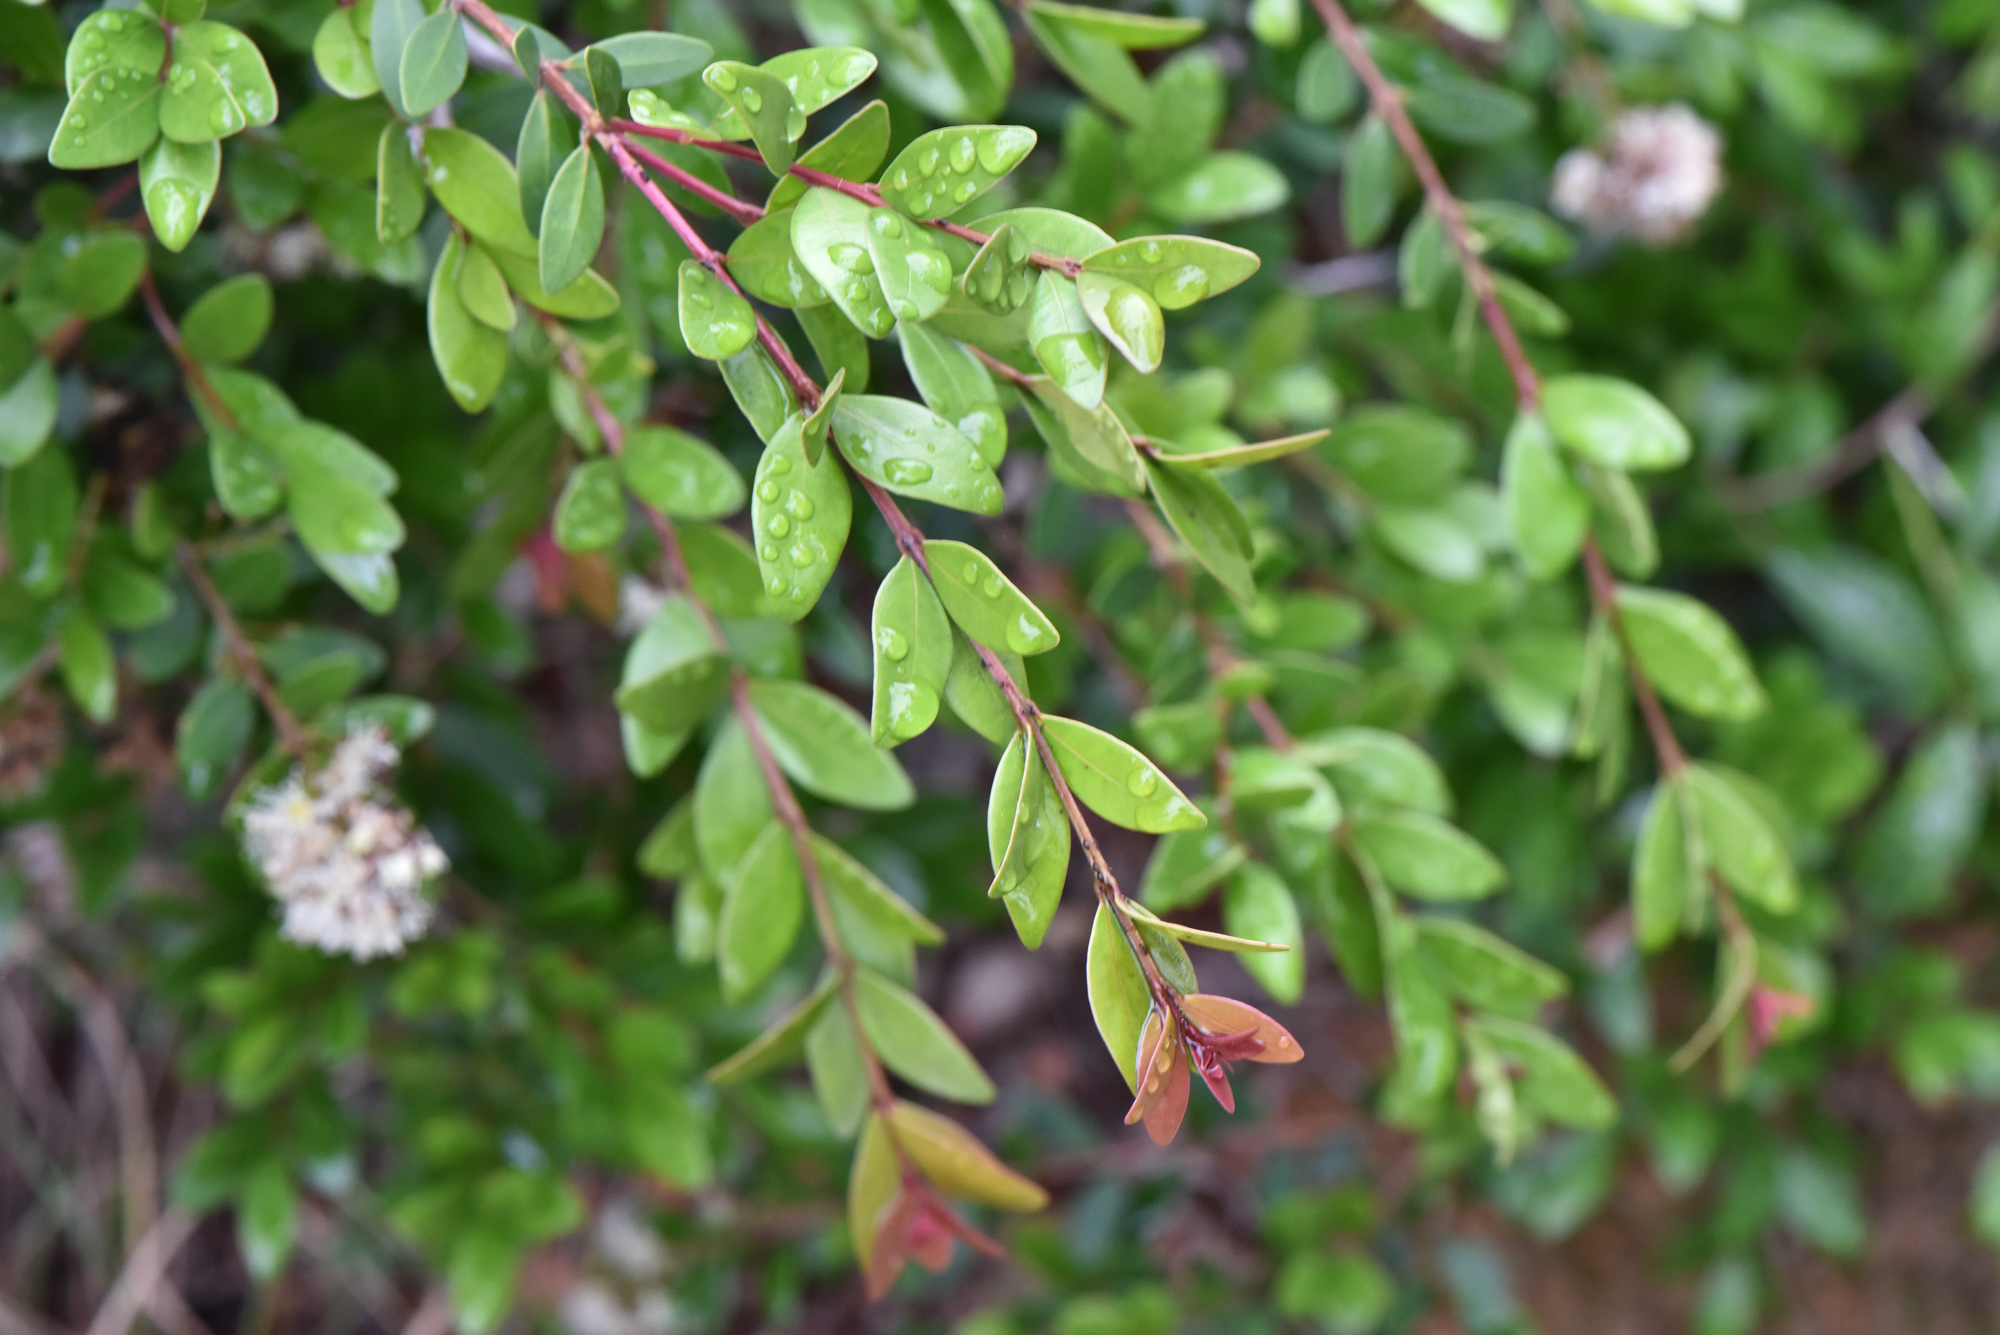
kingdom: Plantae
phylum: Tracheophyta
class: Magnoliopsida
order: Myrtales
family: Myrtaceae
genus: Syzygium
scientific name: Syzygium buxifolium
